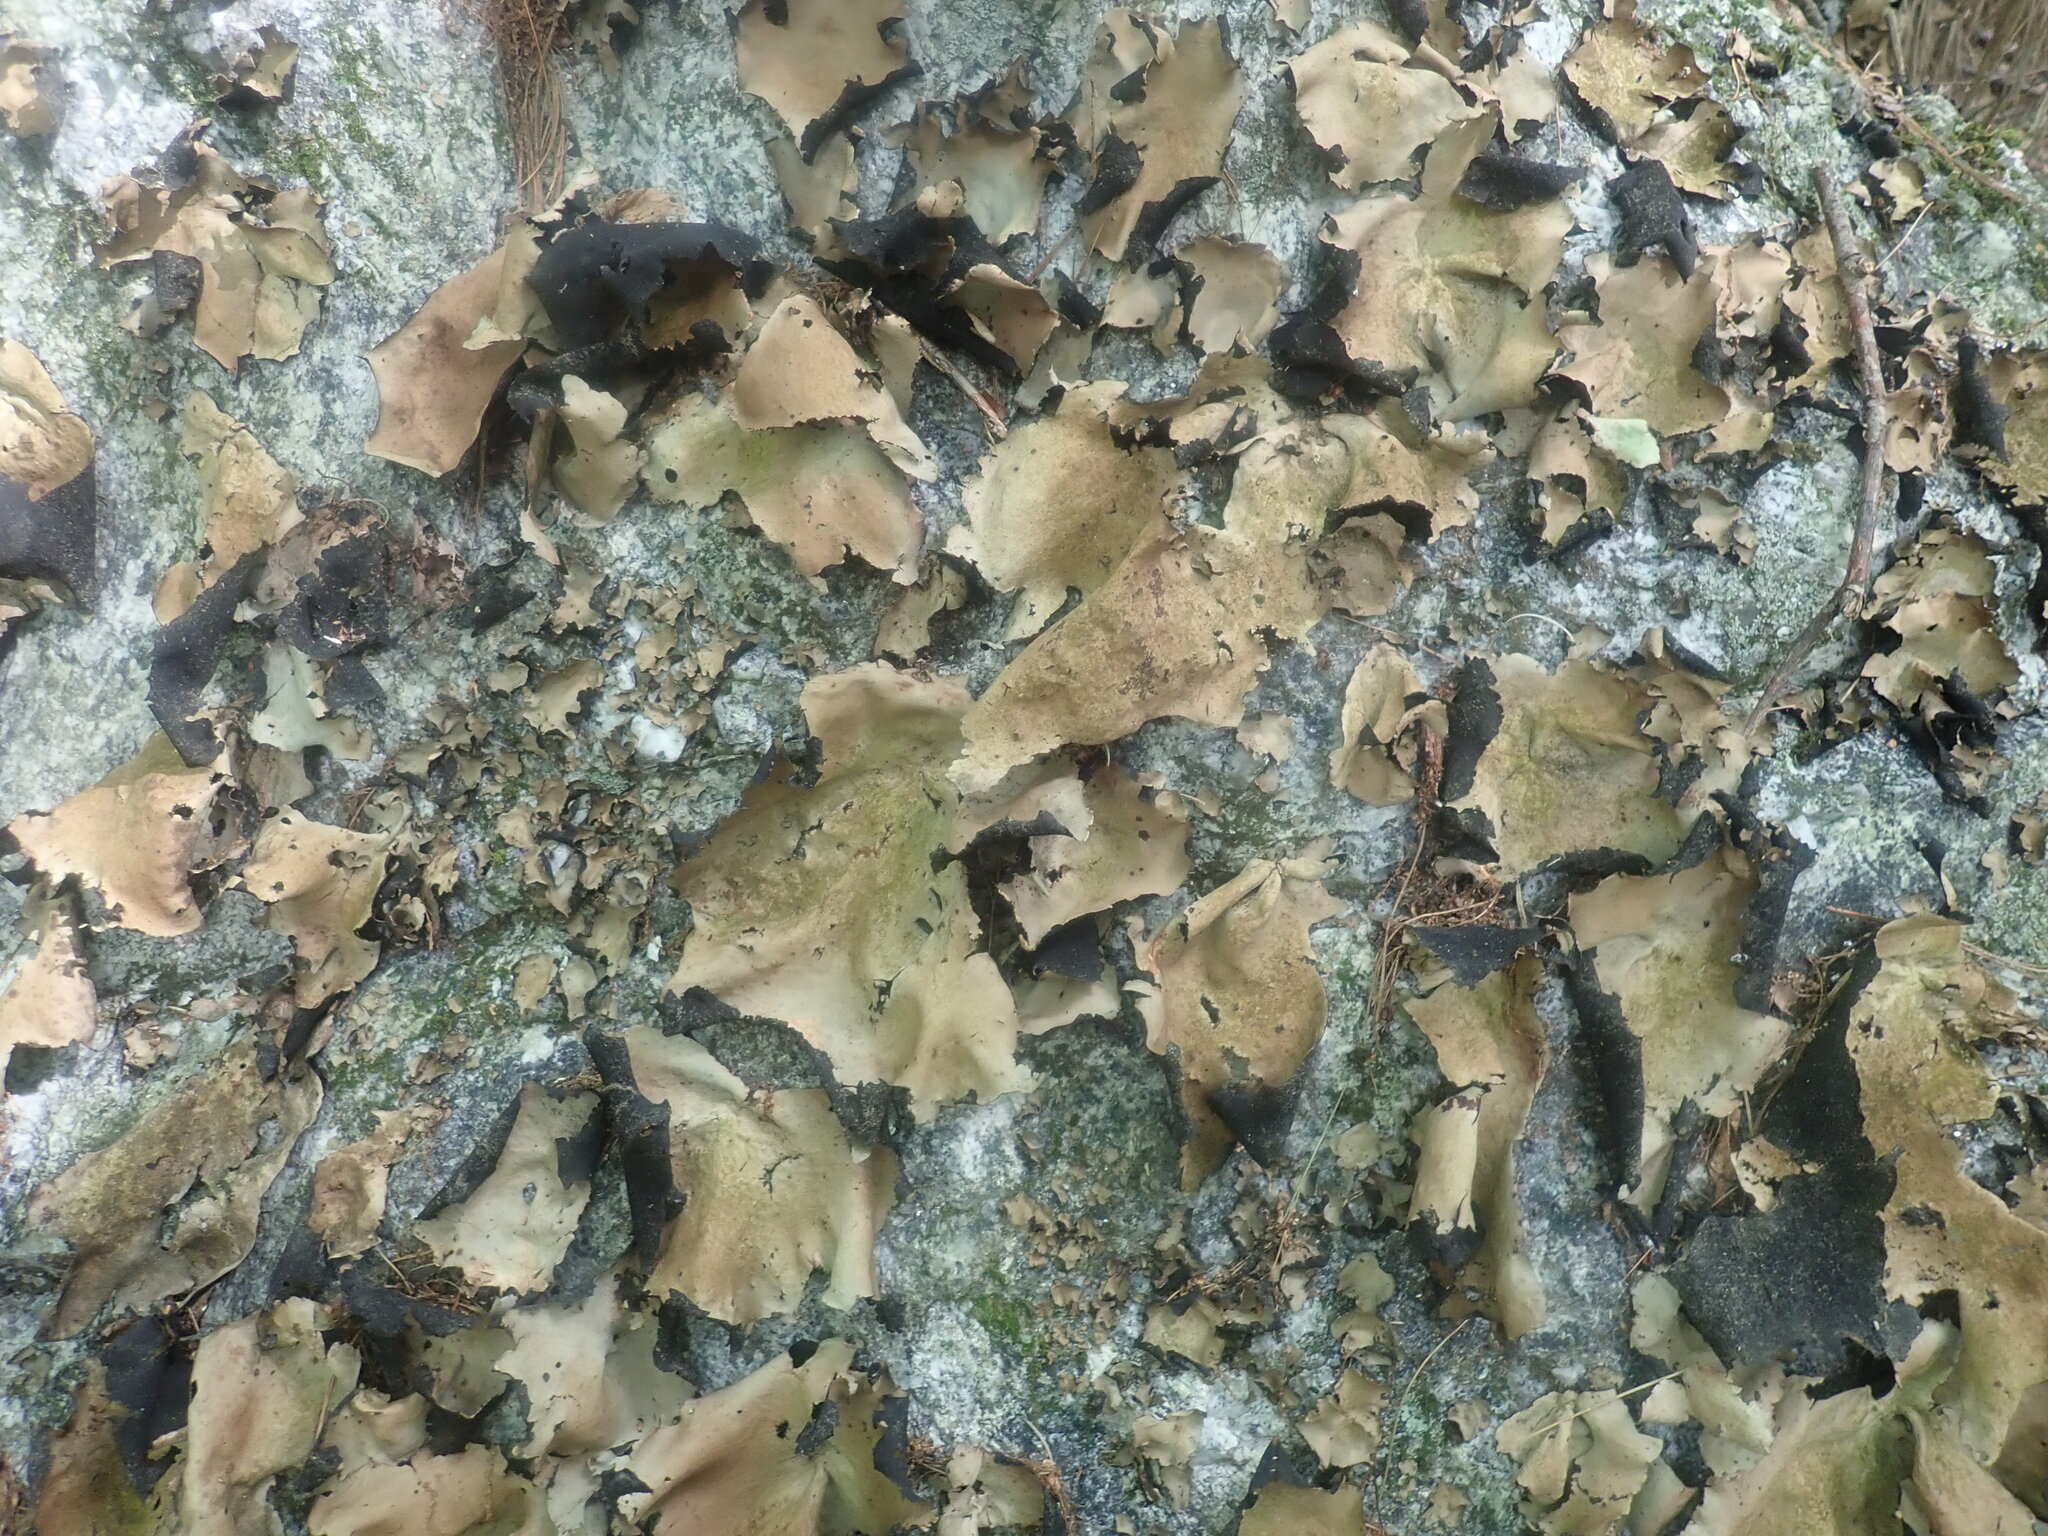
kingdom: Fungi
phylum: Ascomycota
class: Lecanoromycetes
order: Umbilicariales
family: Umbilicariaceae
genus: Umbilicaria
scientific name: Umbilicaria mammulata
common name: Smooth rock tripe
